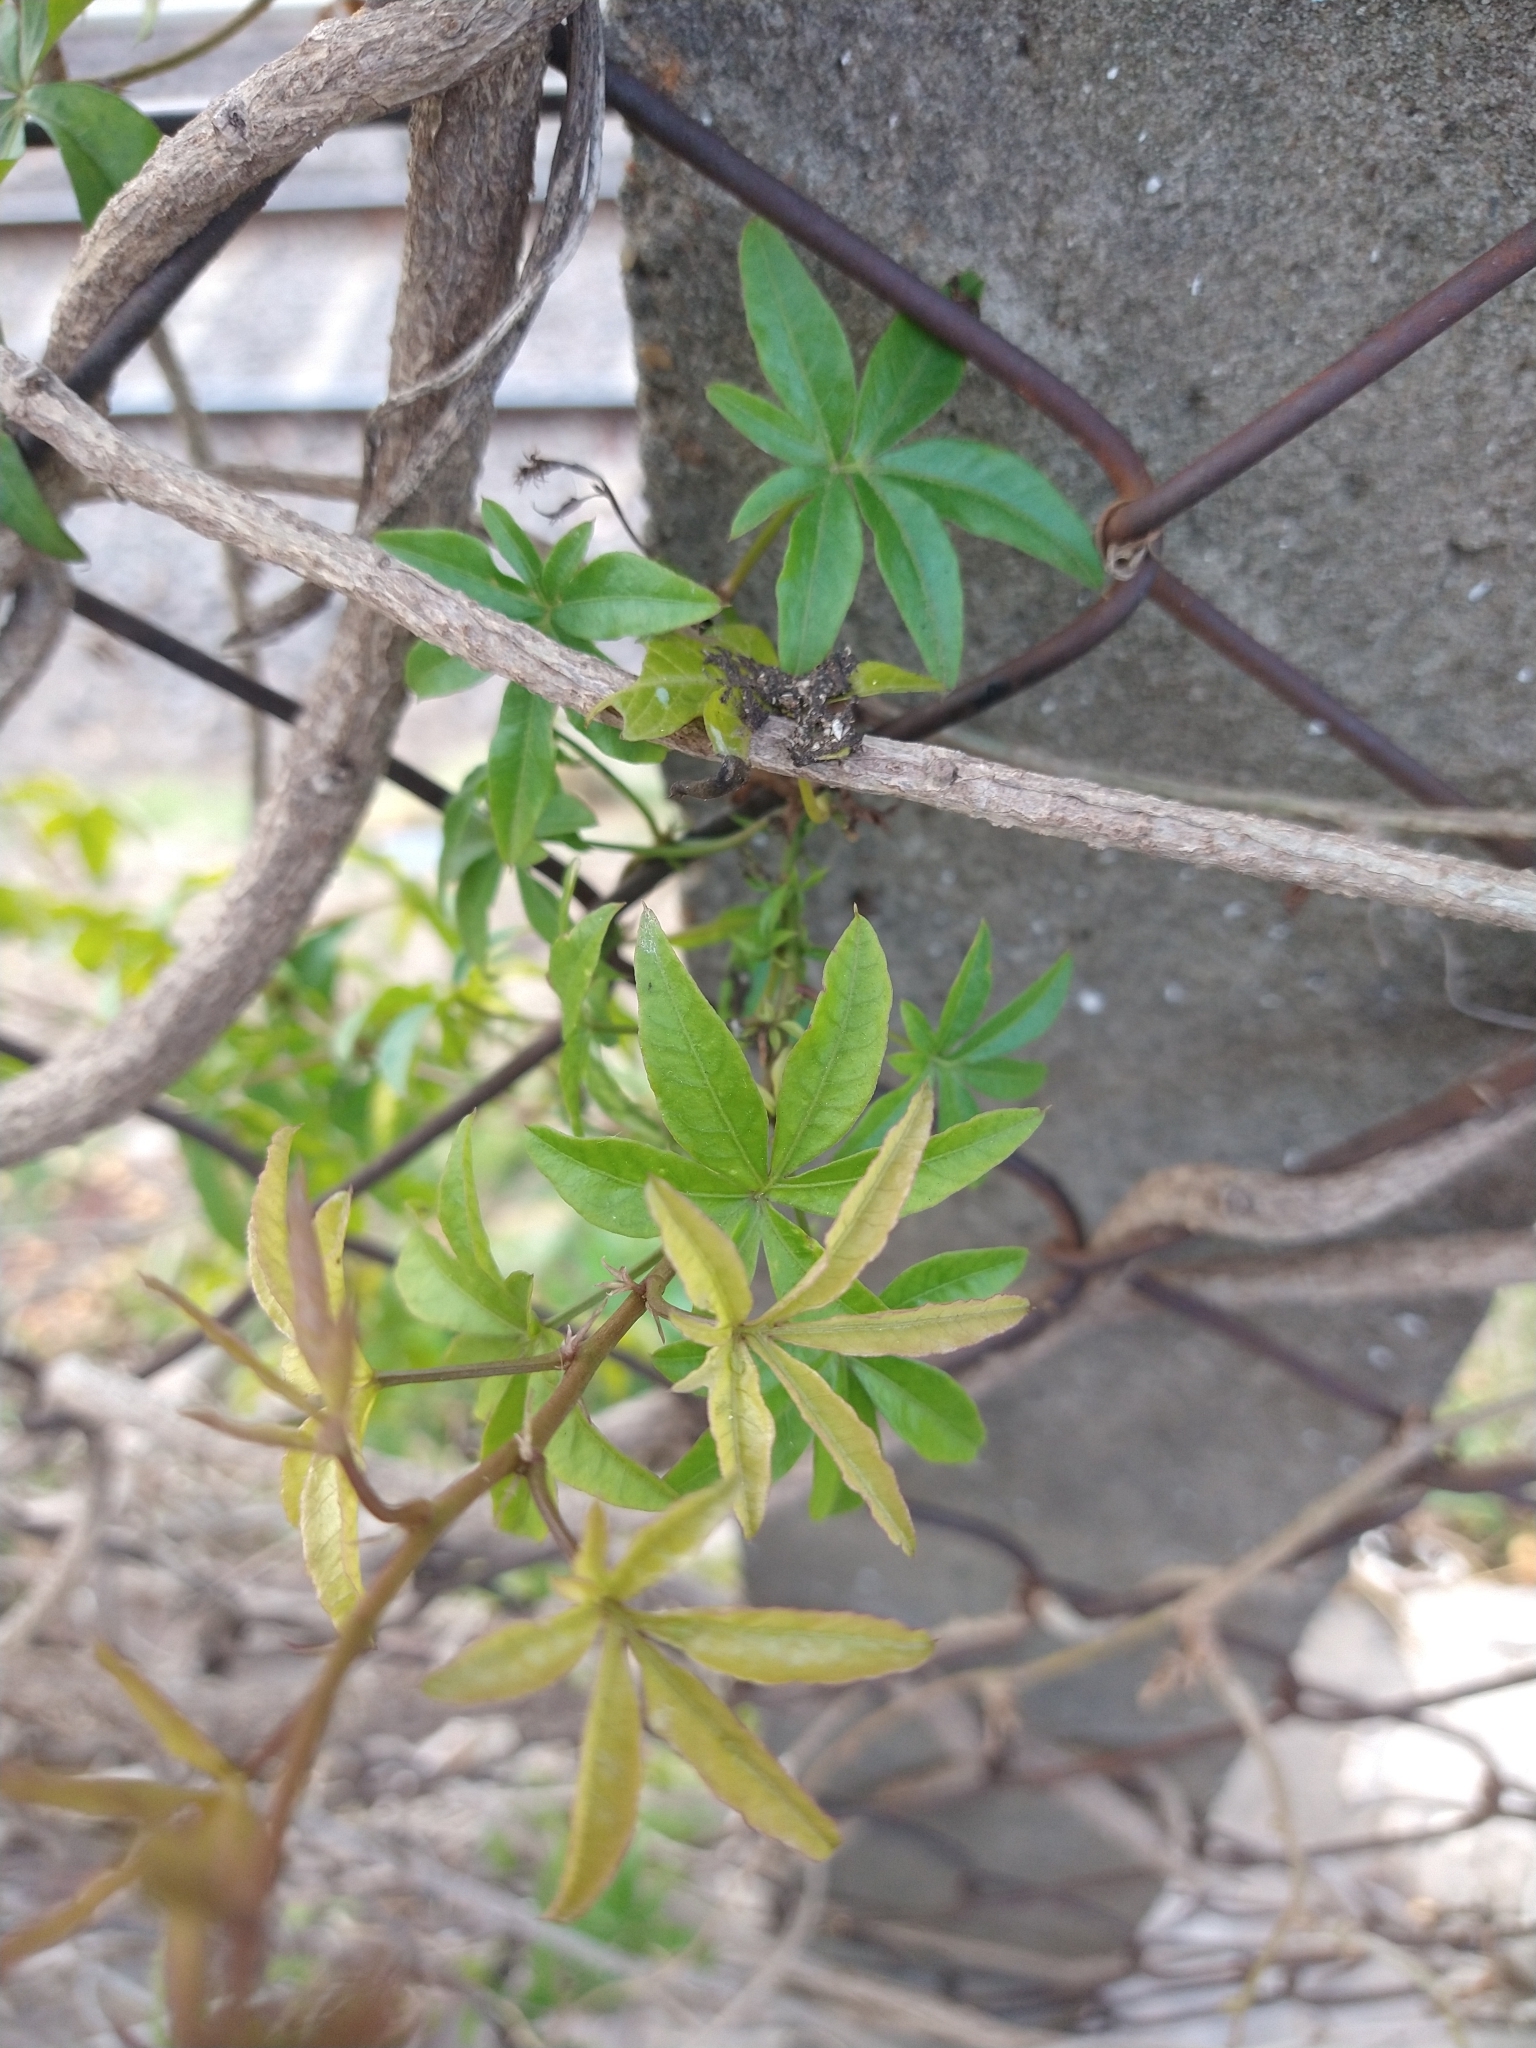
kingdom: Plantae
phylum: Tracheophyta
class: Magnoliopsida
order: Solanales
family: Convolvulaceae
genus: Ipomoea
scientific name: Ipomoea cairica
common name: Mile a minute vine
